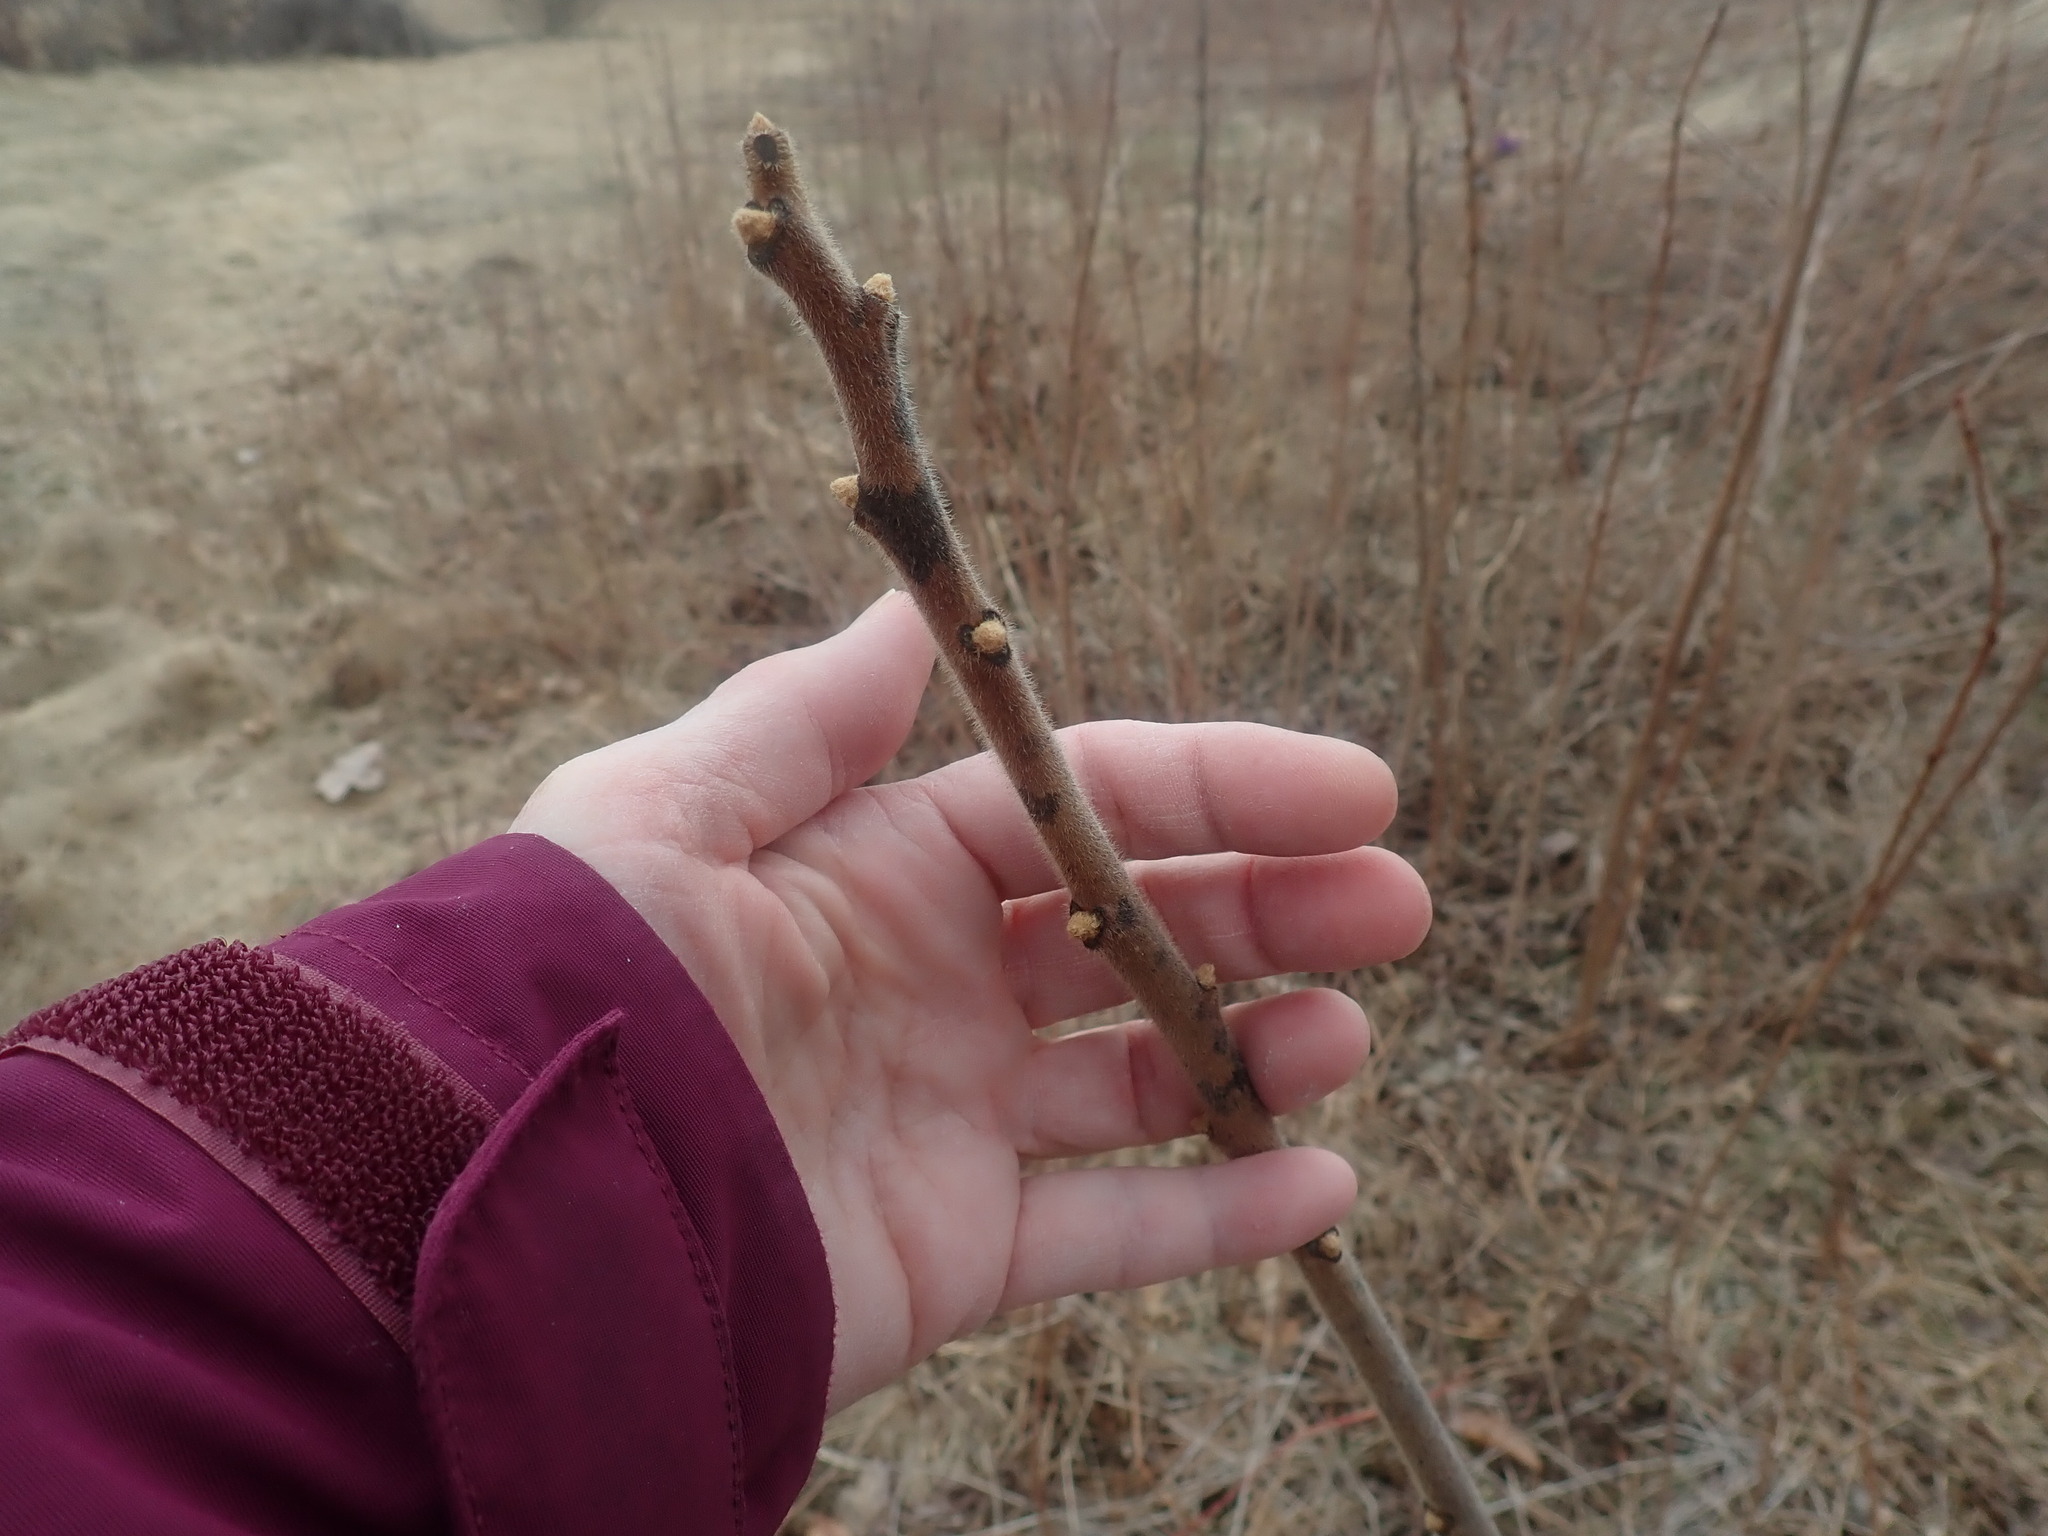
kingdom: Plantae
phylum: Tracheophyta
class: Magnoliopsida
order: Sapindales
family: Anacardiaceae
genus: Rhus
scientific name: Rhus typhina
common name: Staghorn sumac
